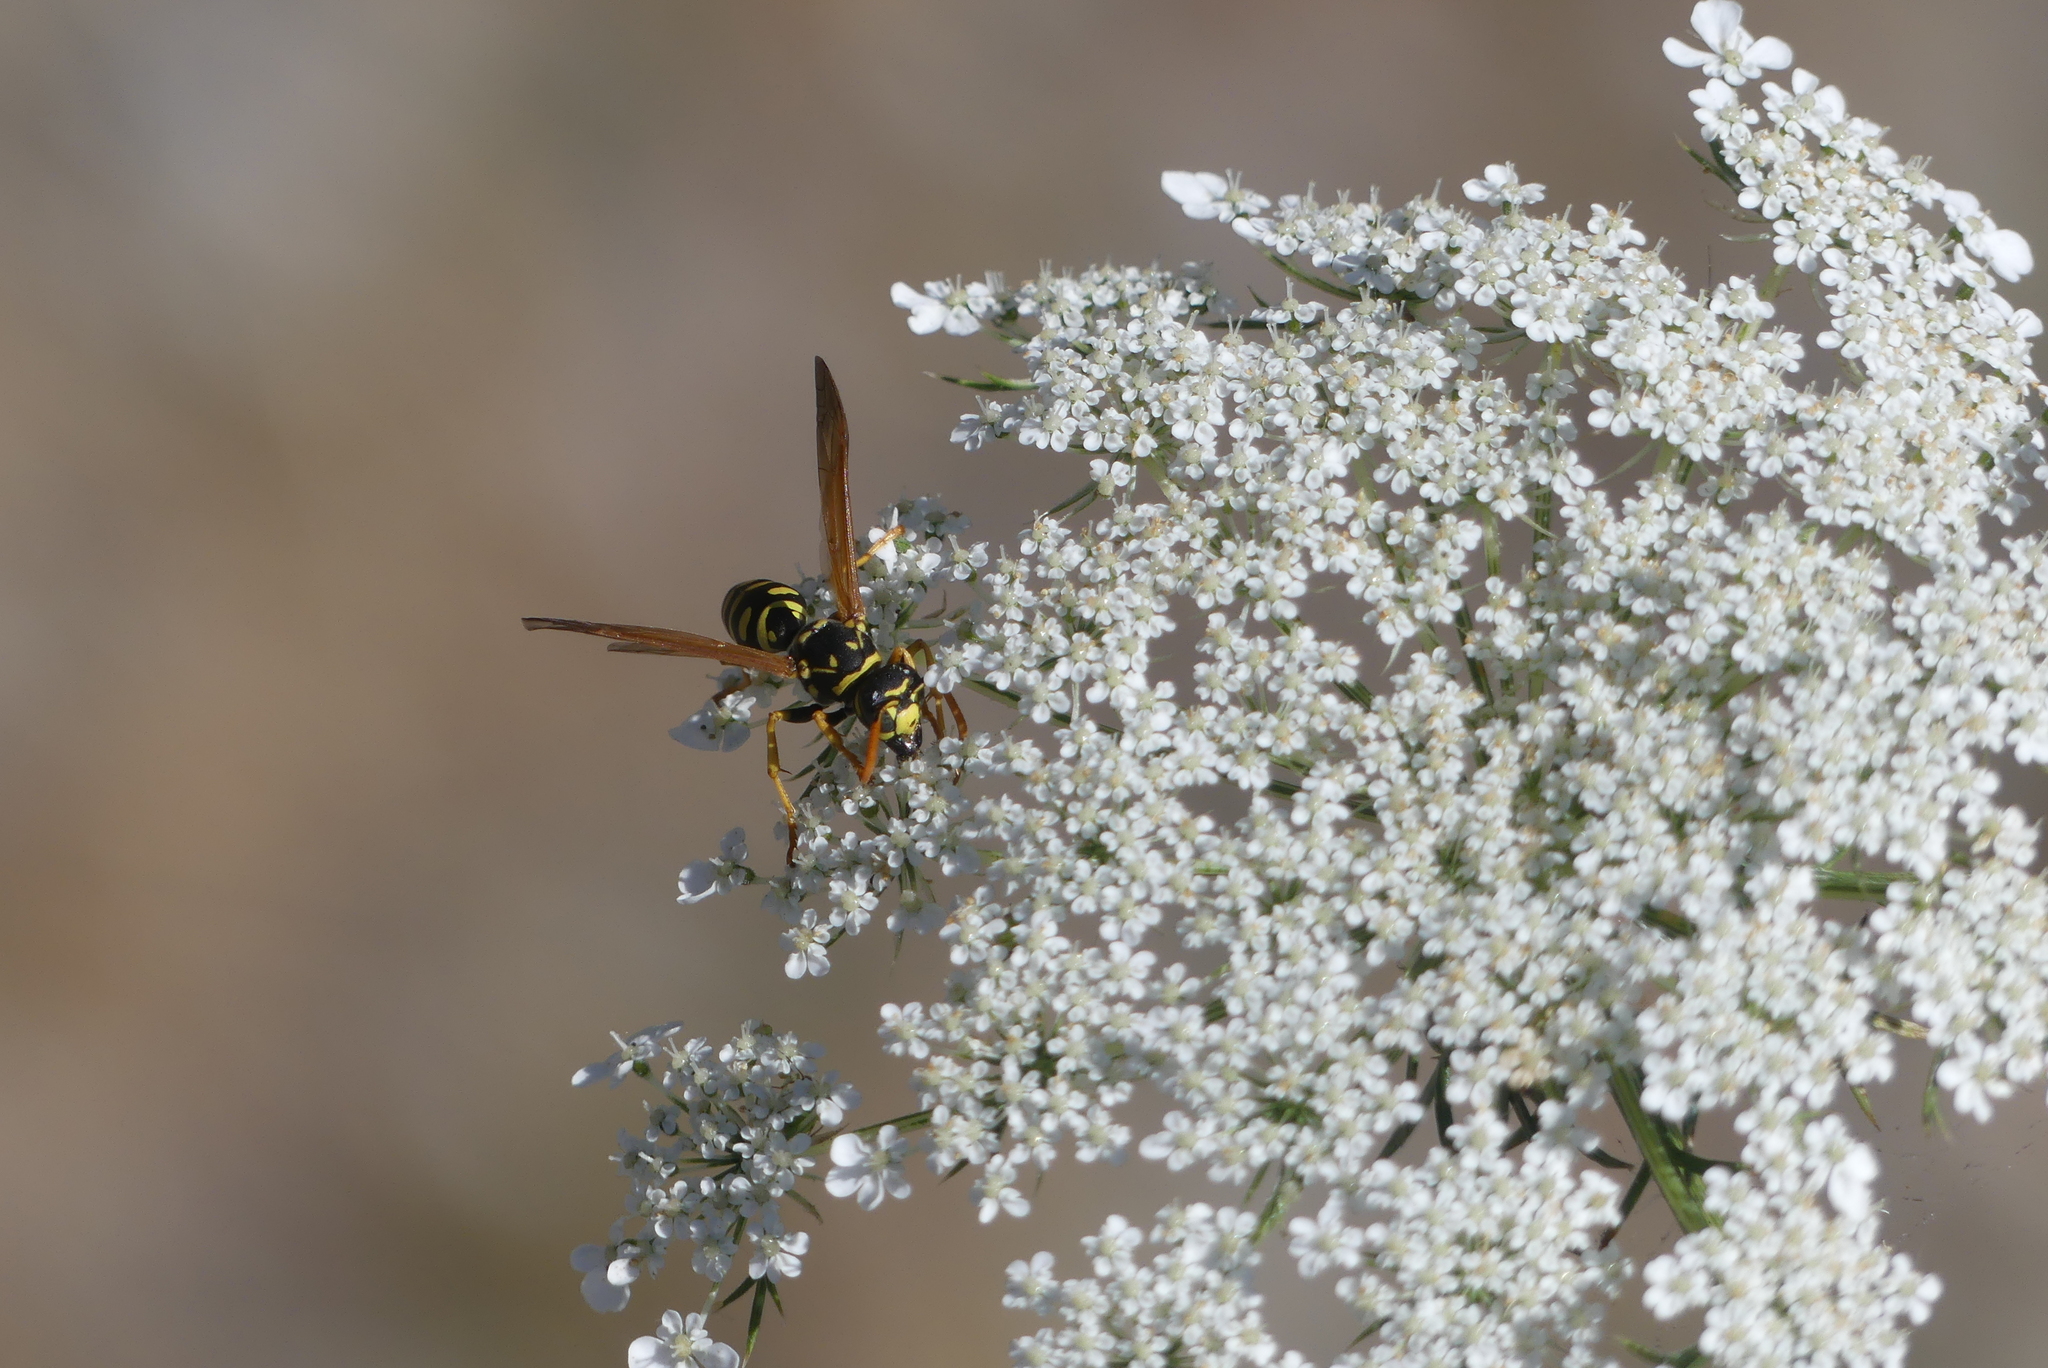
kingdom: Animalia
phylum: Arthropoda
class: Insecta
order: Hymenoptera
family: Eumenidae
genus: Polistes
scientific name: Polistes dominula
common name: Paper wasp
